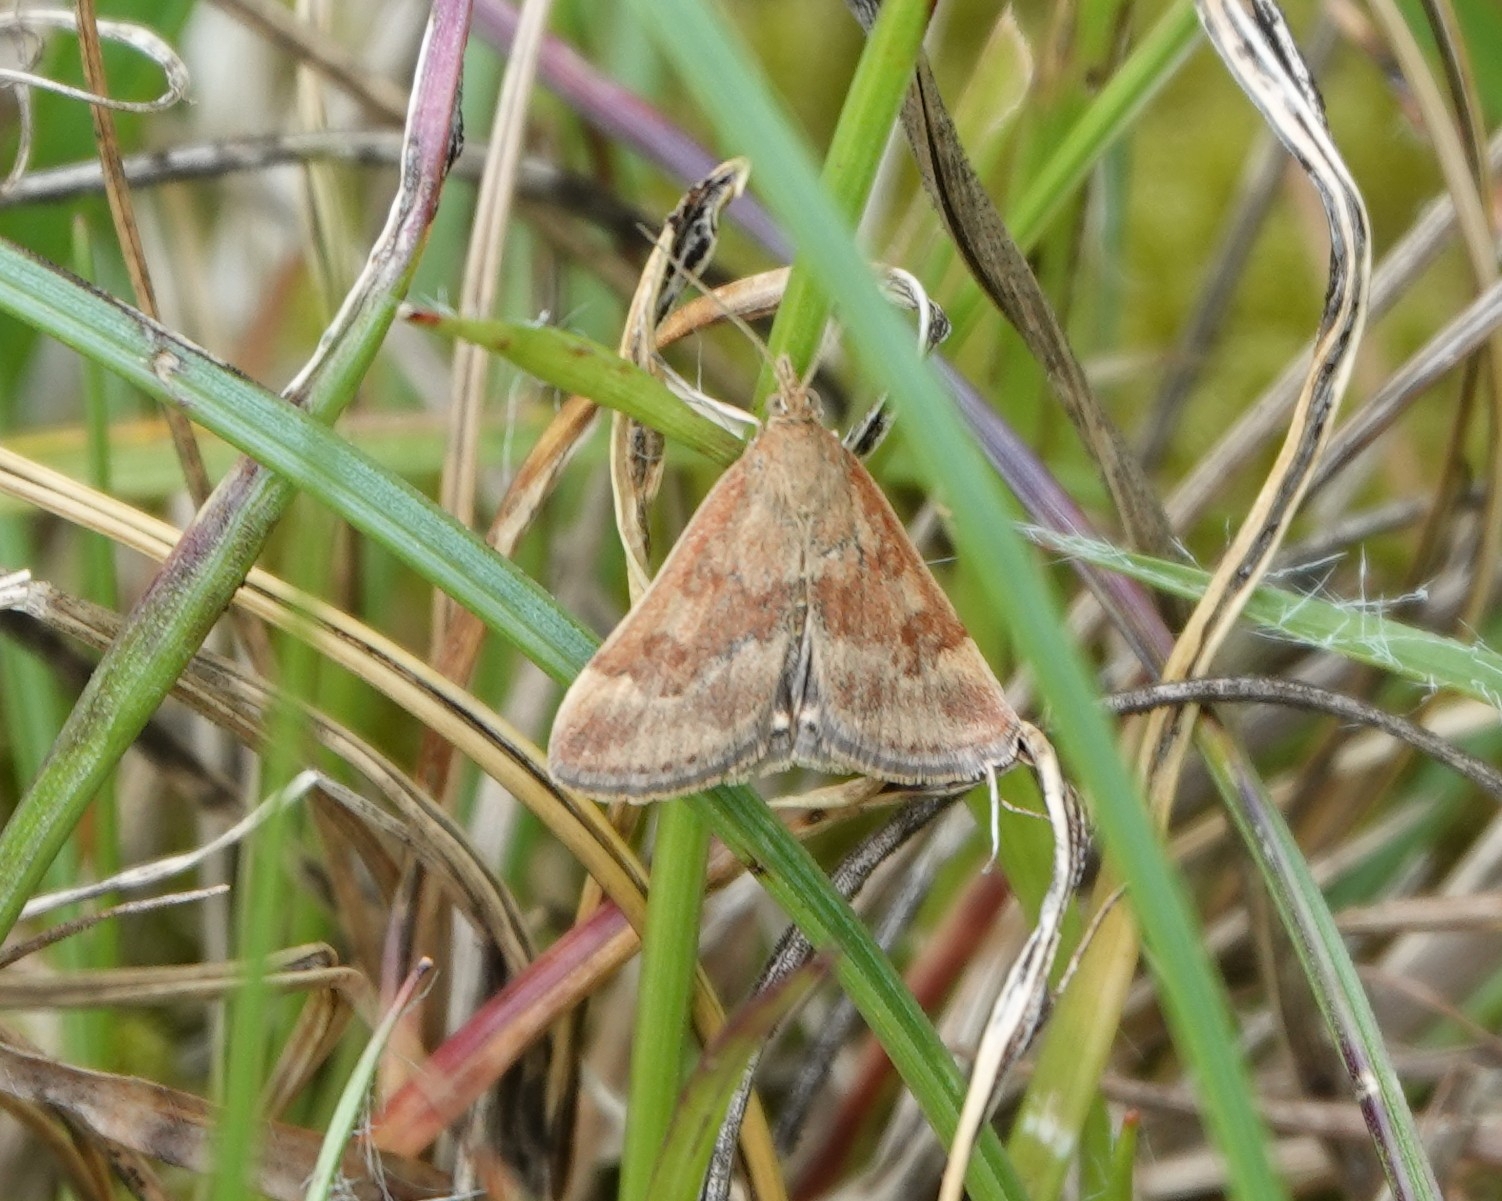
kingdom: Animalia
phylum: Arthropoda
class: Insecta
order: Lepidoptera
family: Crambidae
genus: Pyrausta
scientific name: Pyrausta despicata
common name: Straw-barred pearl
